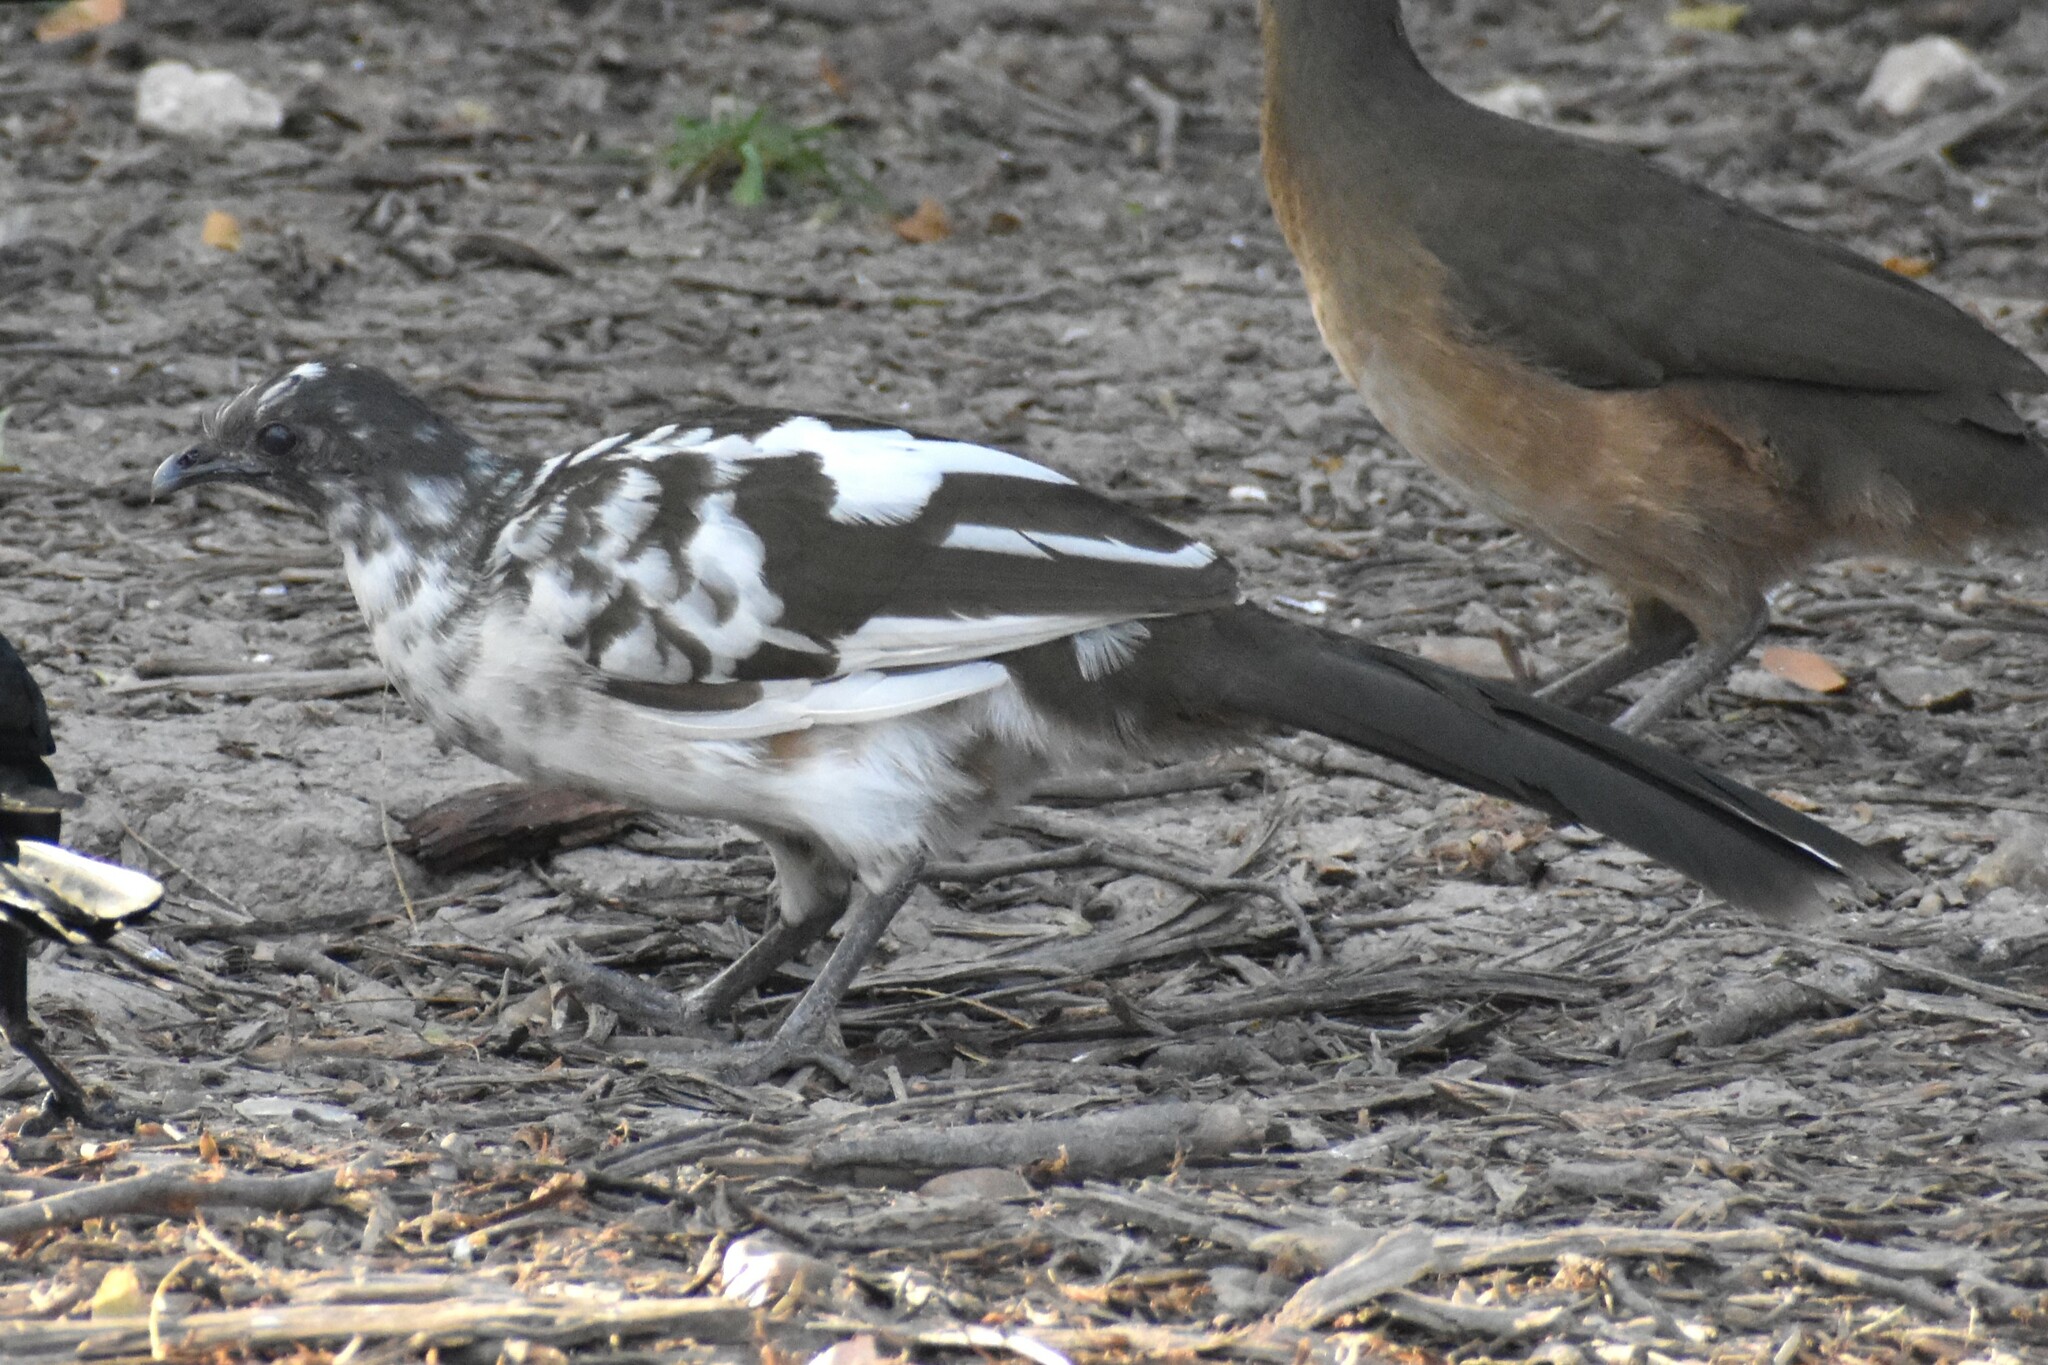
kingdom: Animalia
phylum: Chordata
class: Aves
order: Galliformes
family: Cracidae
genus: Ortalis
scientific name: Ortalis vetula
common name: Plain chachalaca
